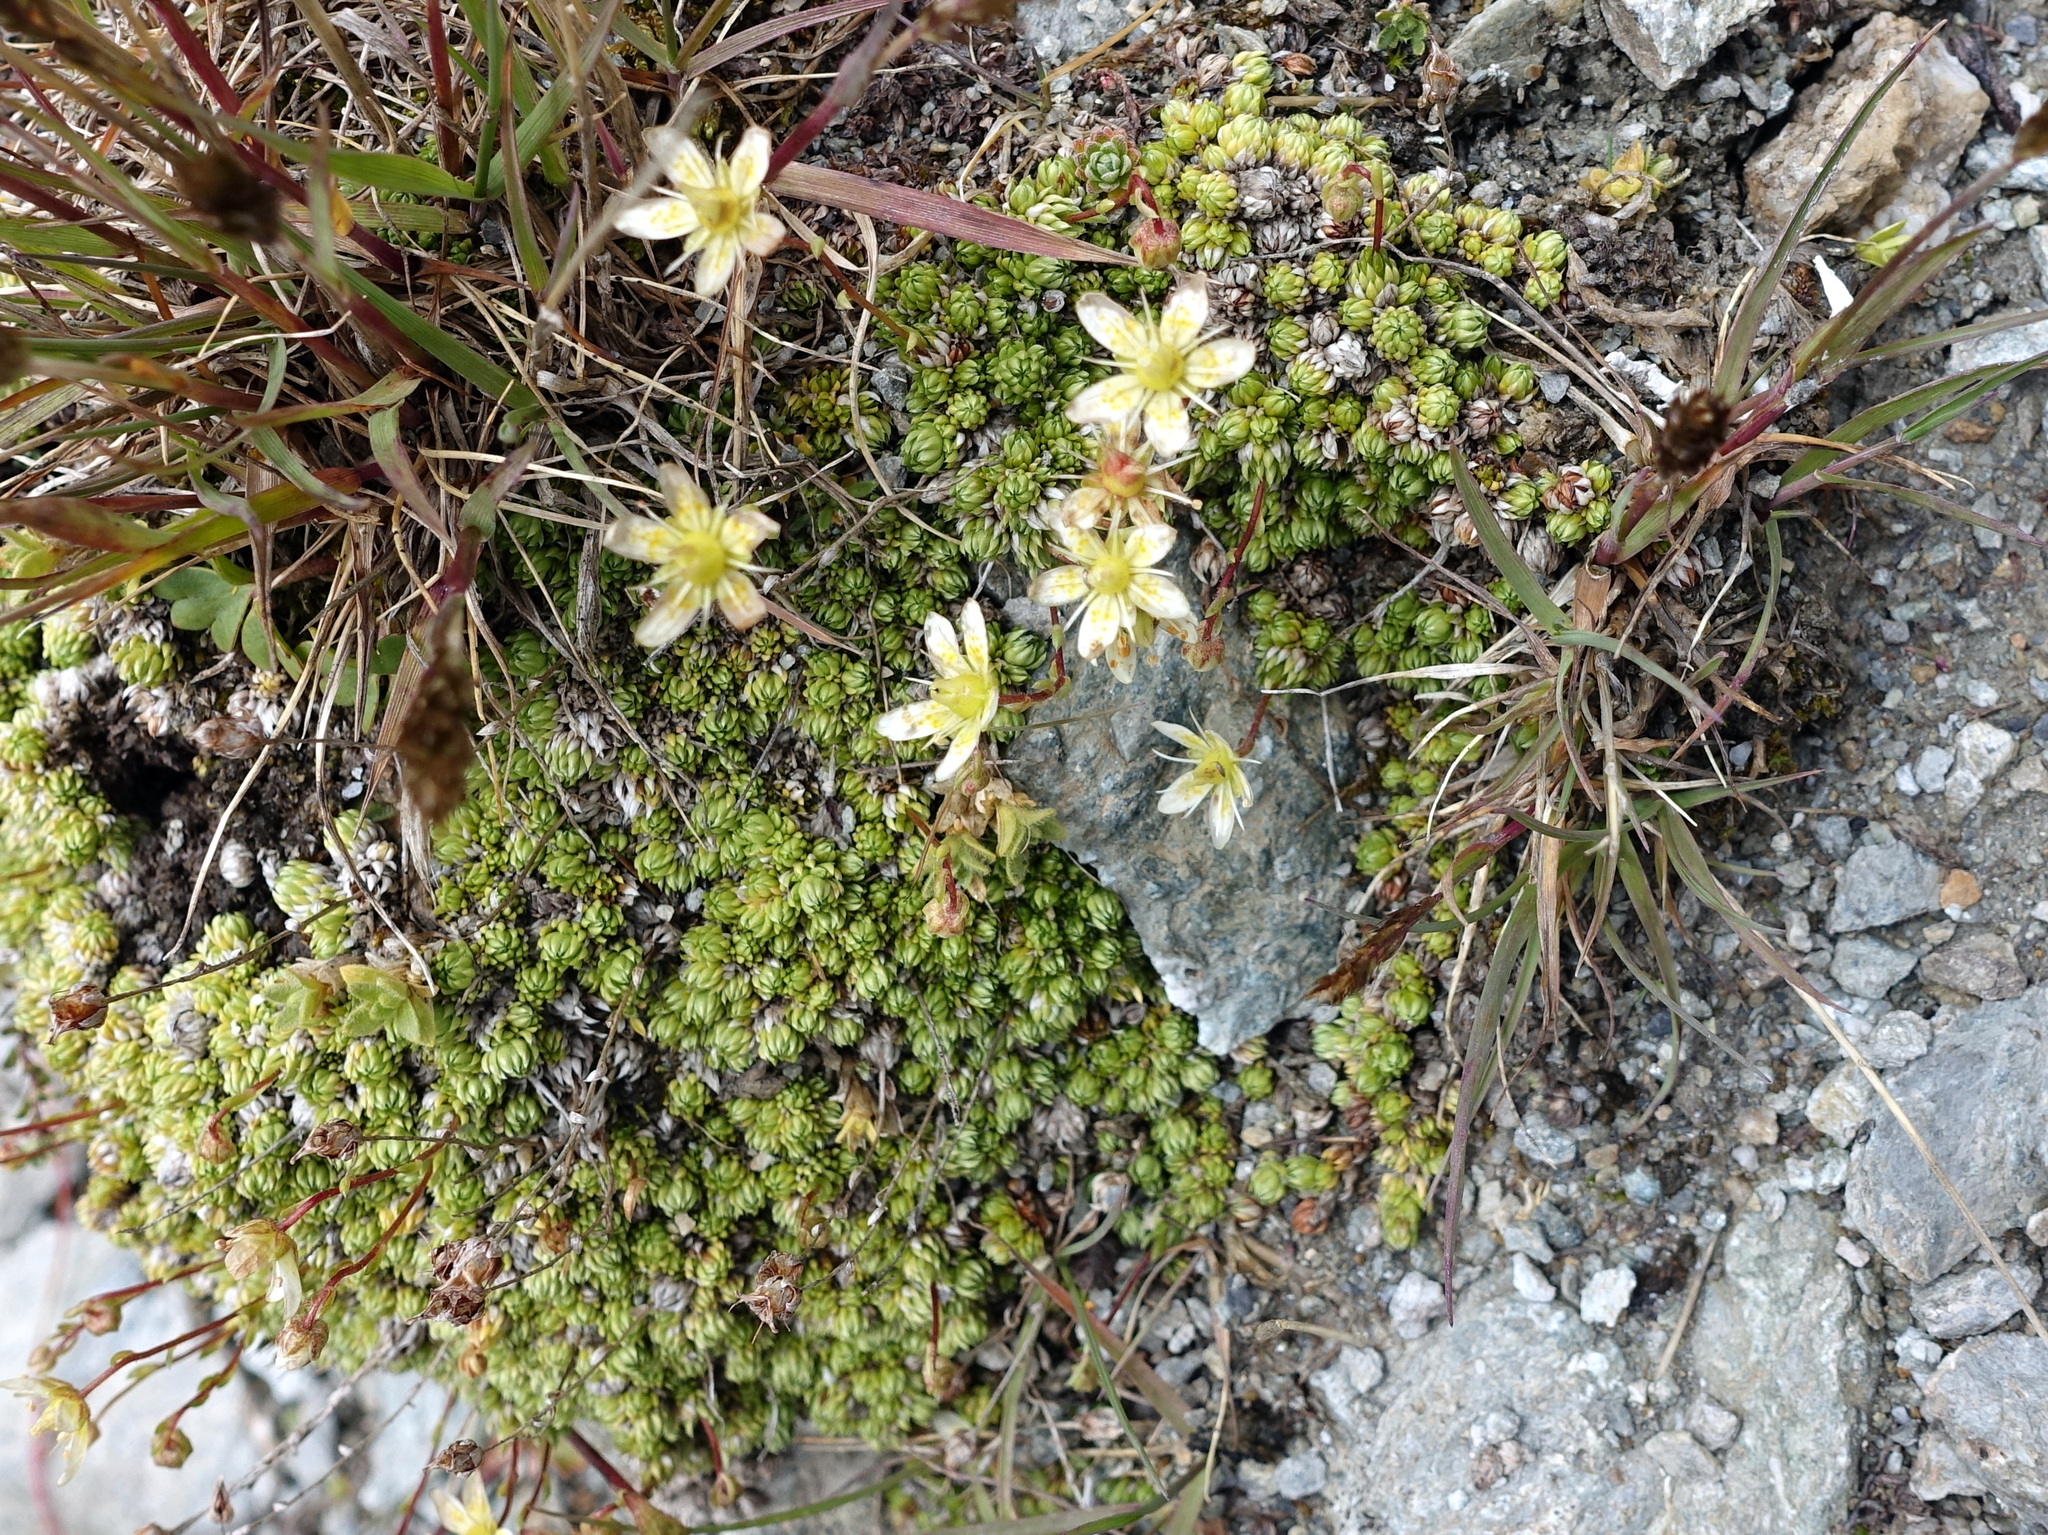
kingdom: Plantae
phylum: Tracheophyta
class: Magnoliopsida
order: Saxifragales
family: Saxifragaceae
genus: Saxifraga
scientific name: Saxifraga bryoides
